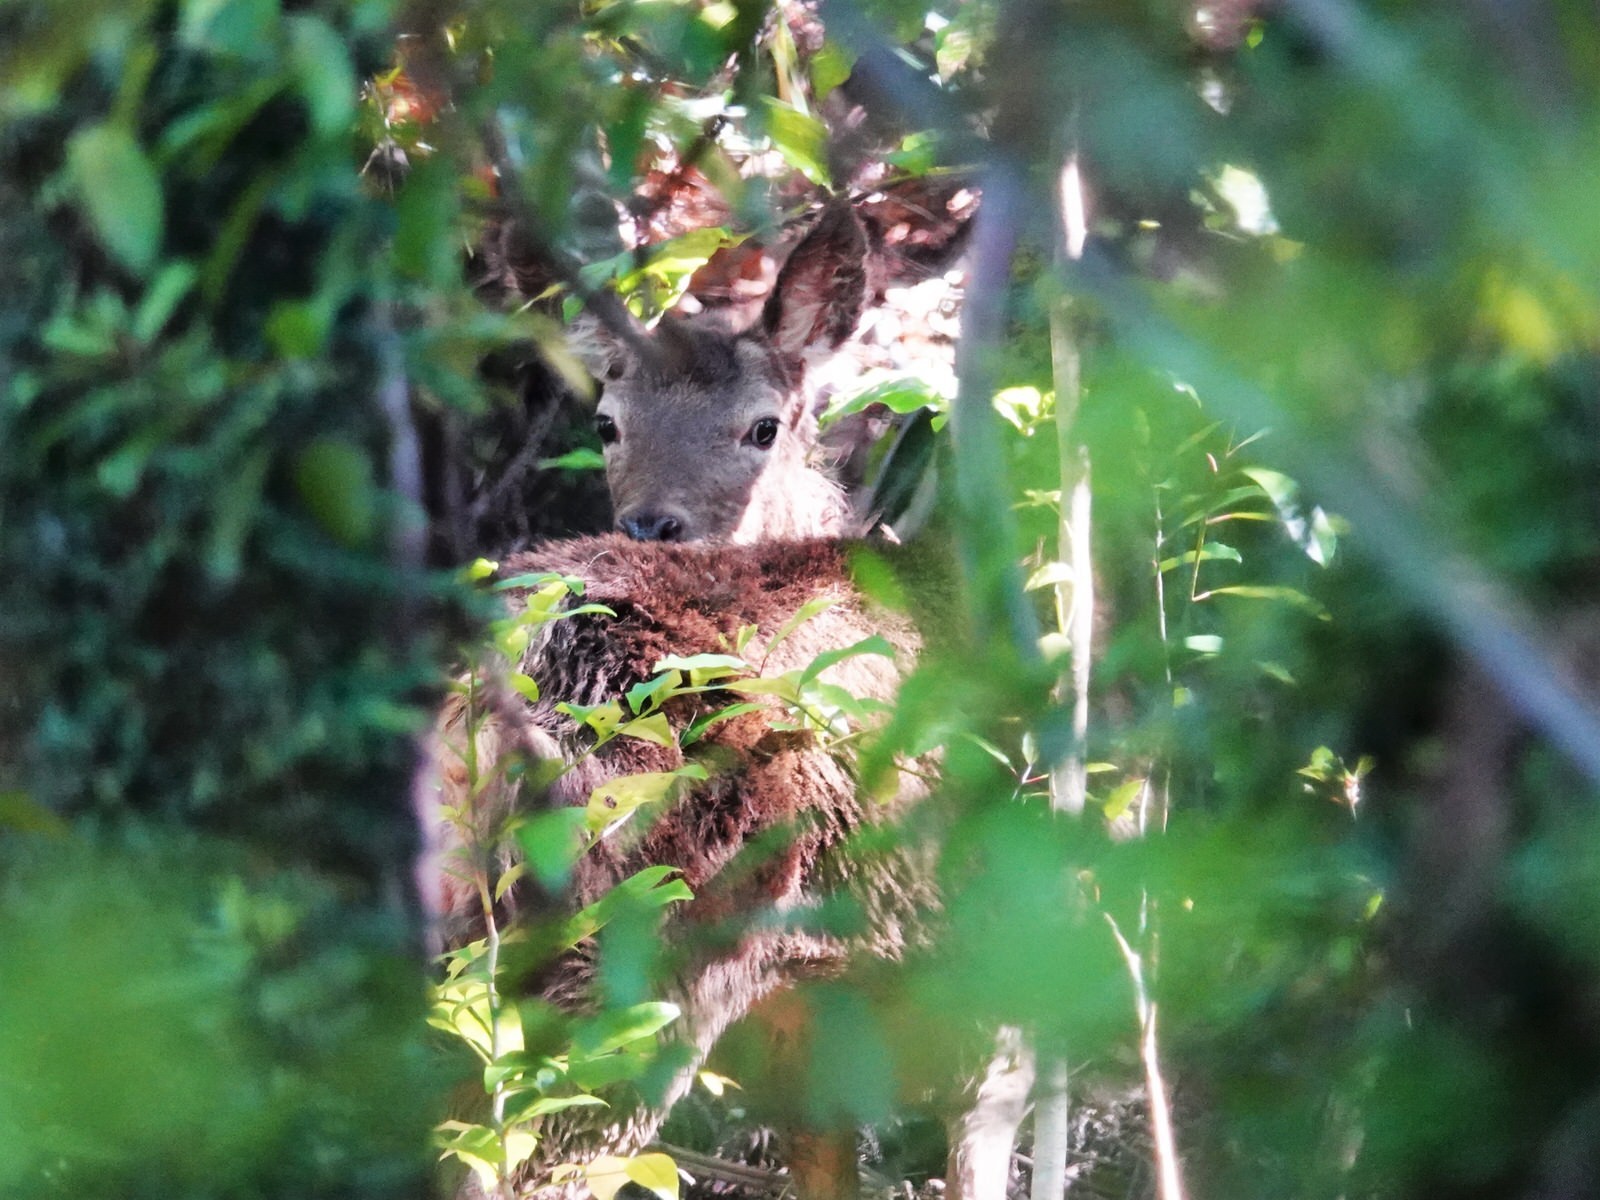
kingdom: Animalia
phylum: Chordata
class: Mammalia
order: Artiodactyla
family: Cervidae
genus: Cervus
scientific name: Cervus elaphus
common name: Red deer
